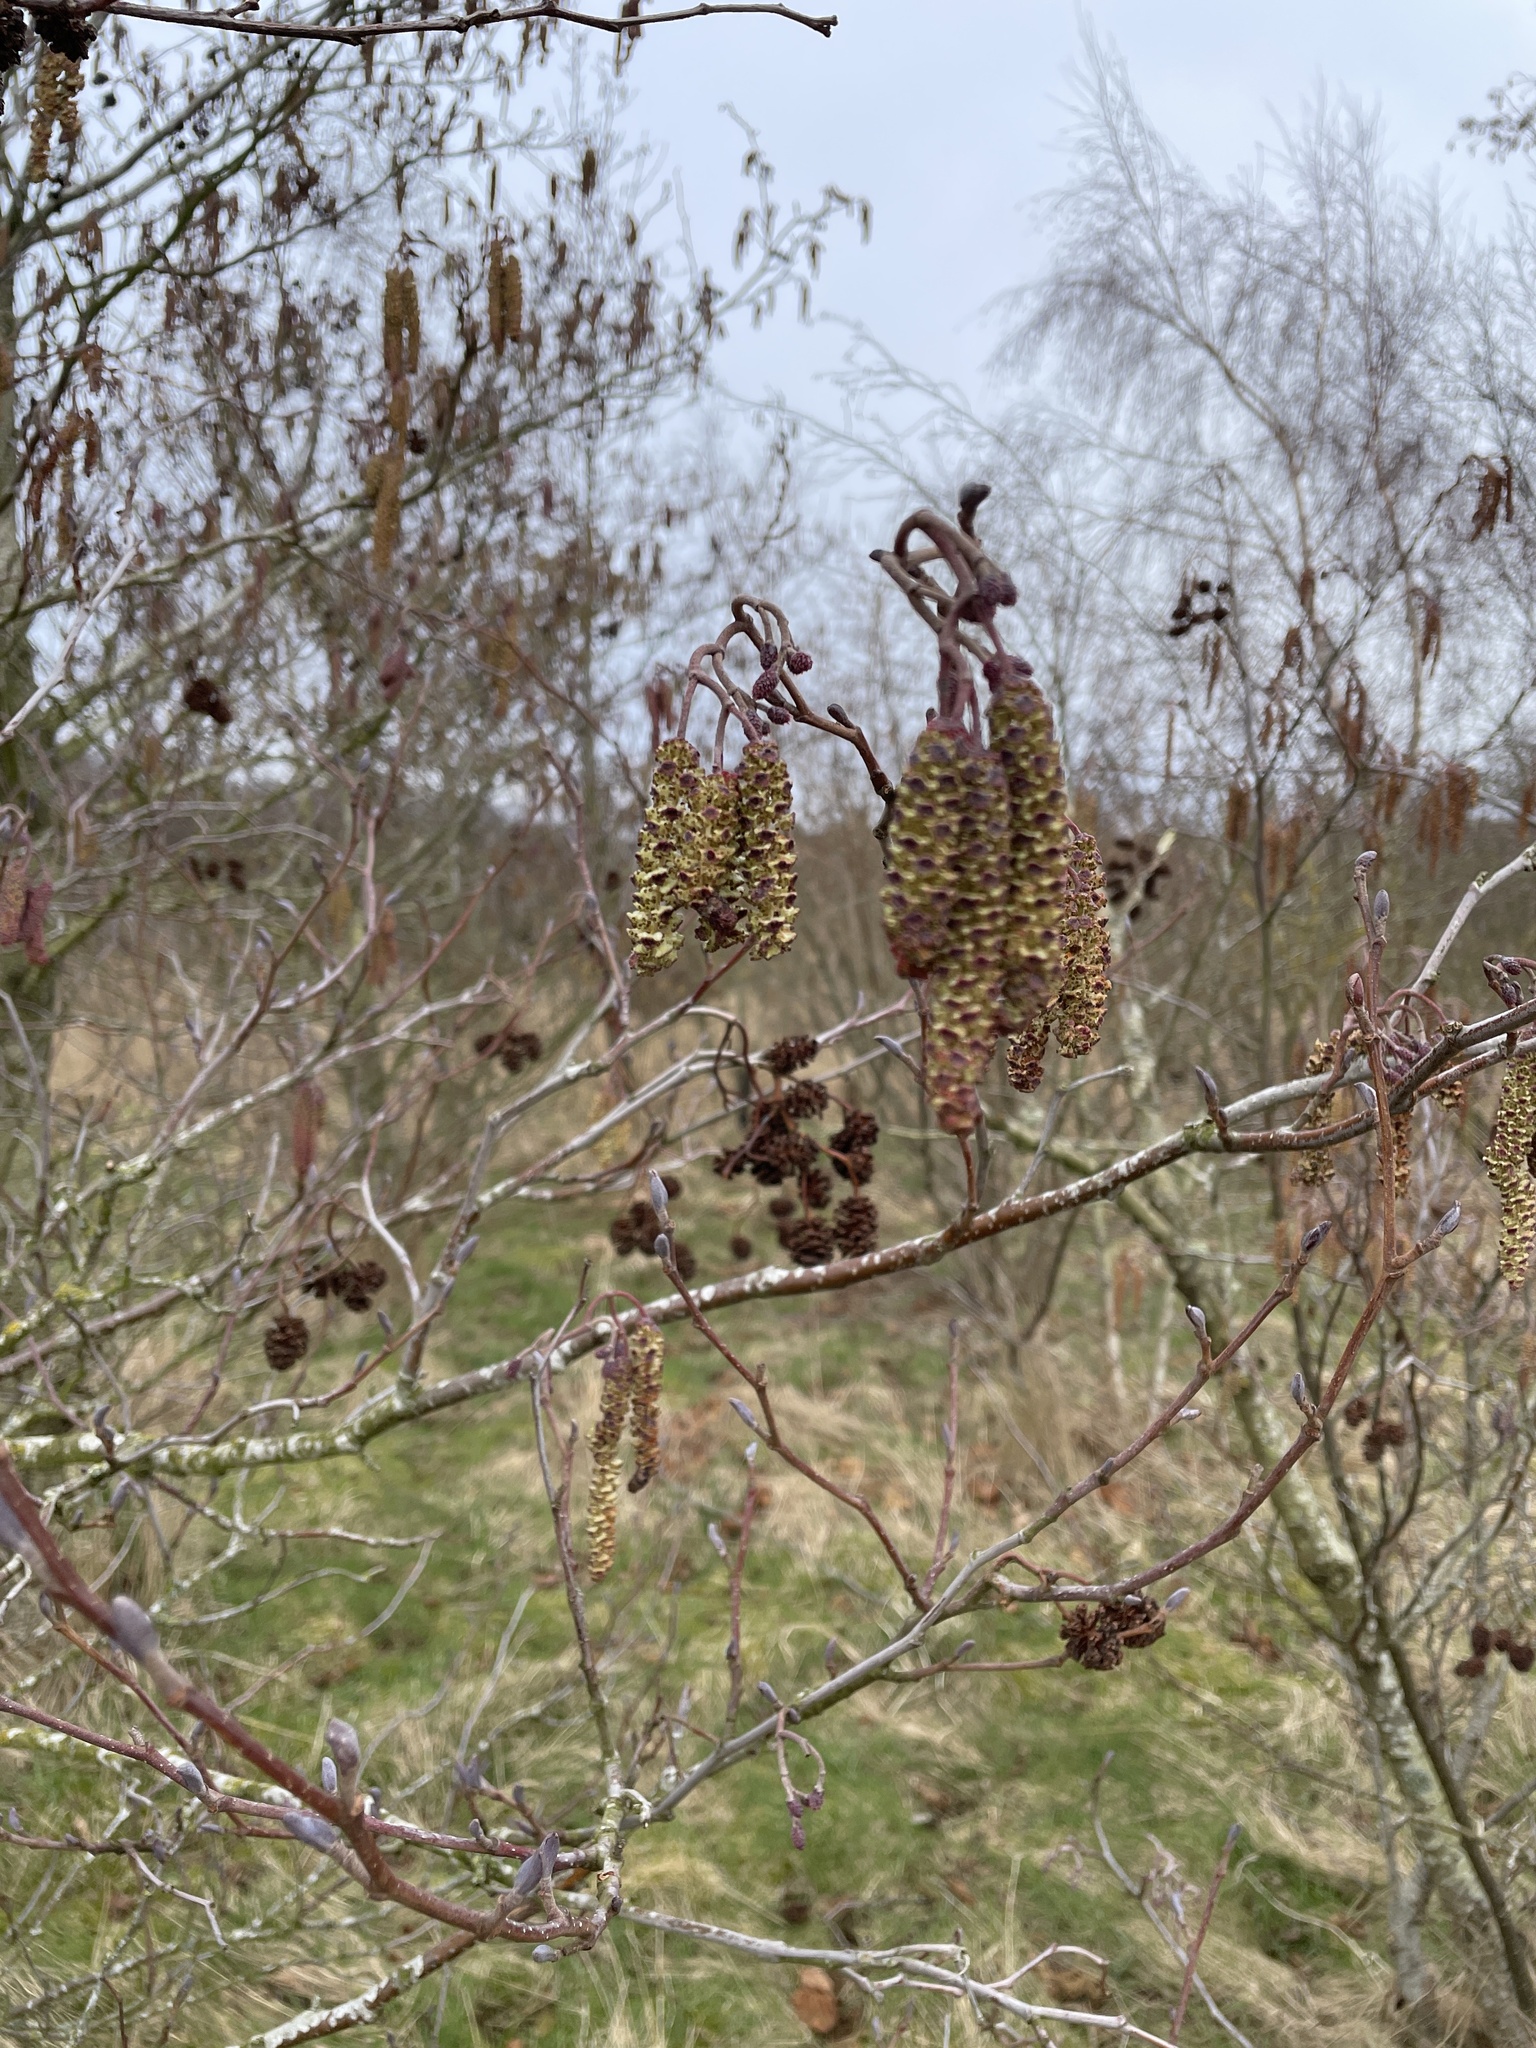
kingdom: Plantae
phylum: Tracheophyta
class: Magnoliopsida
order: Fagales
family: Betulaceae
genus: Alnus
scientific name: Alnus glutinosa
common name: Black alder
